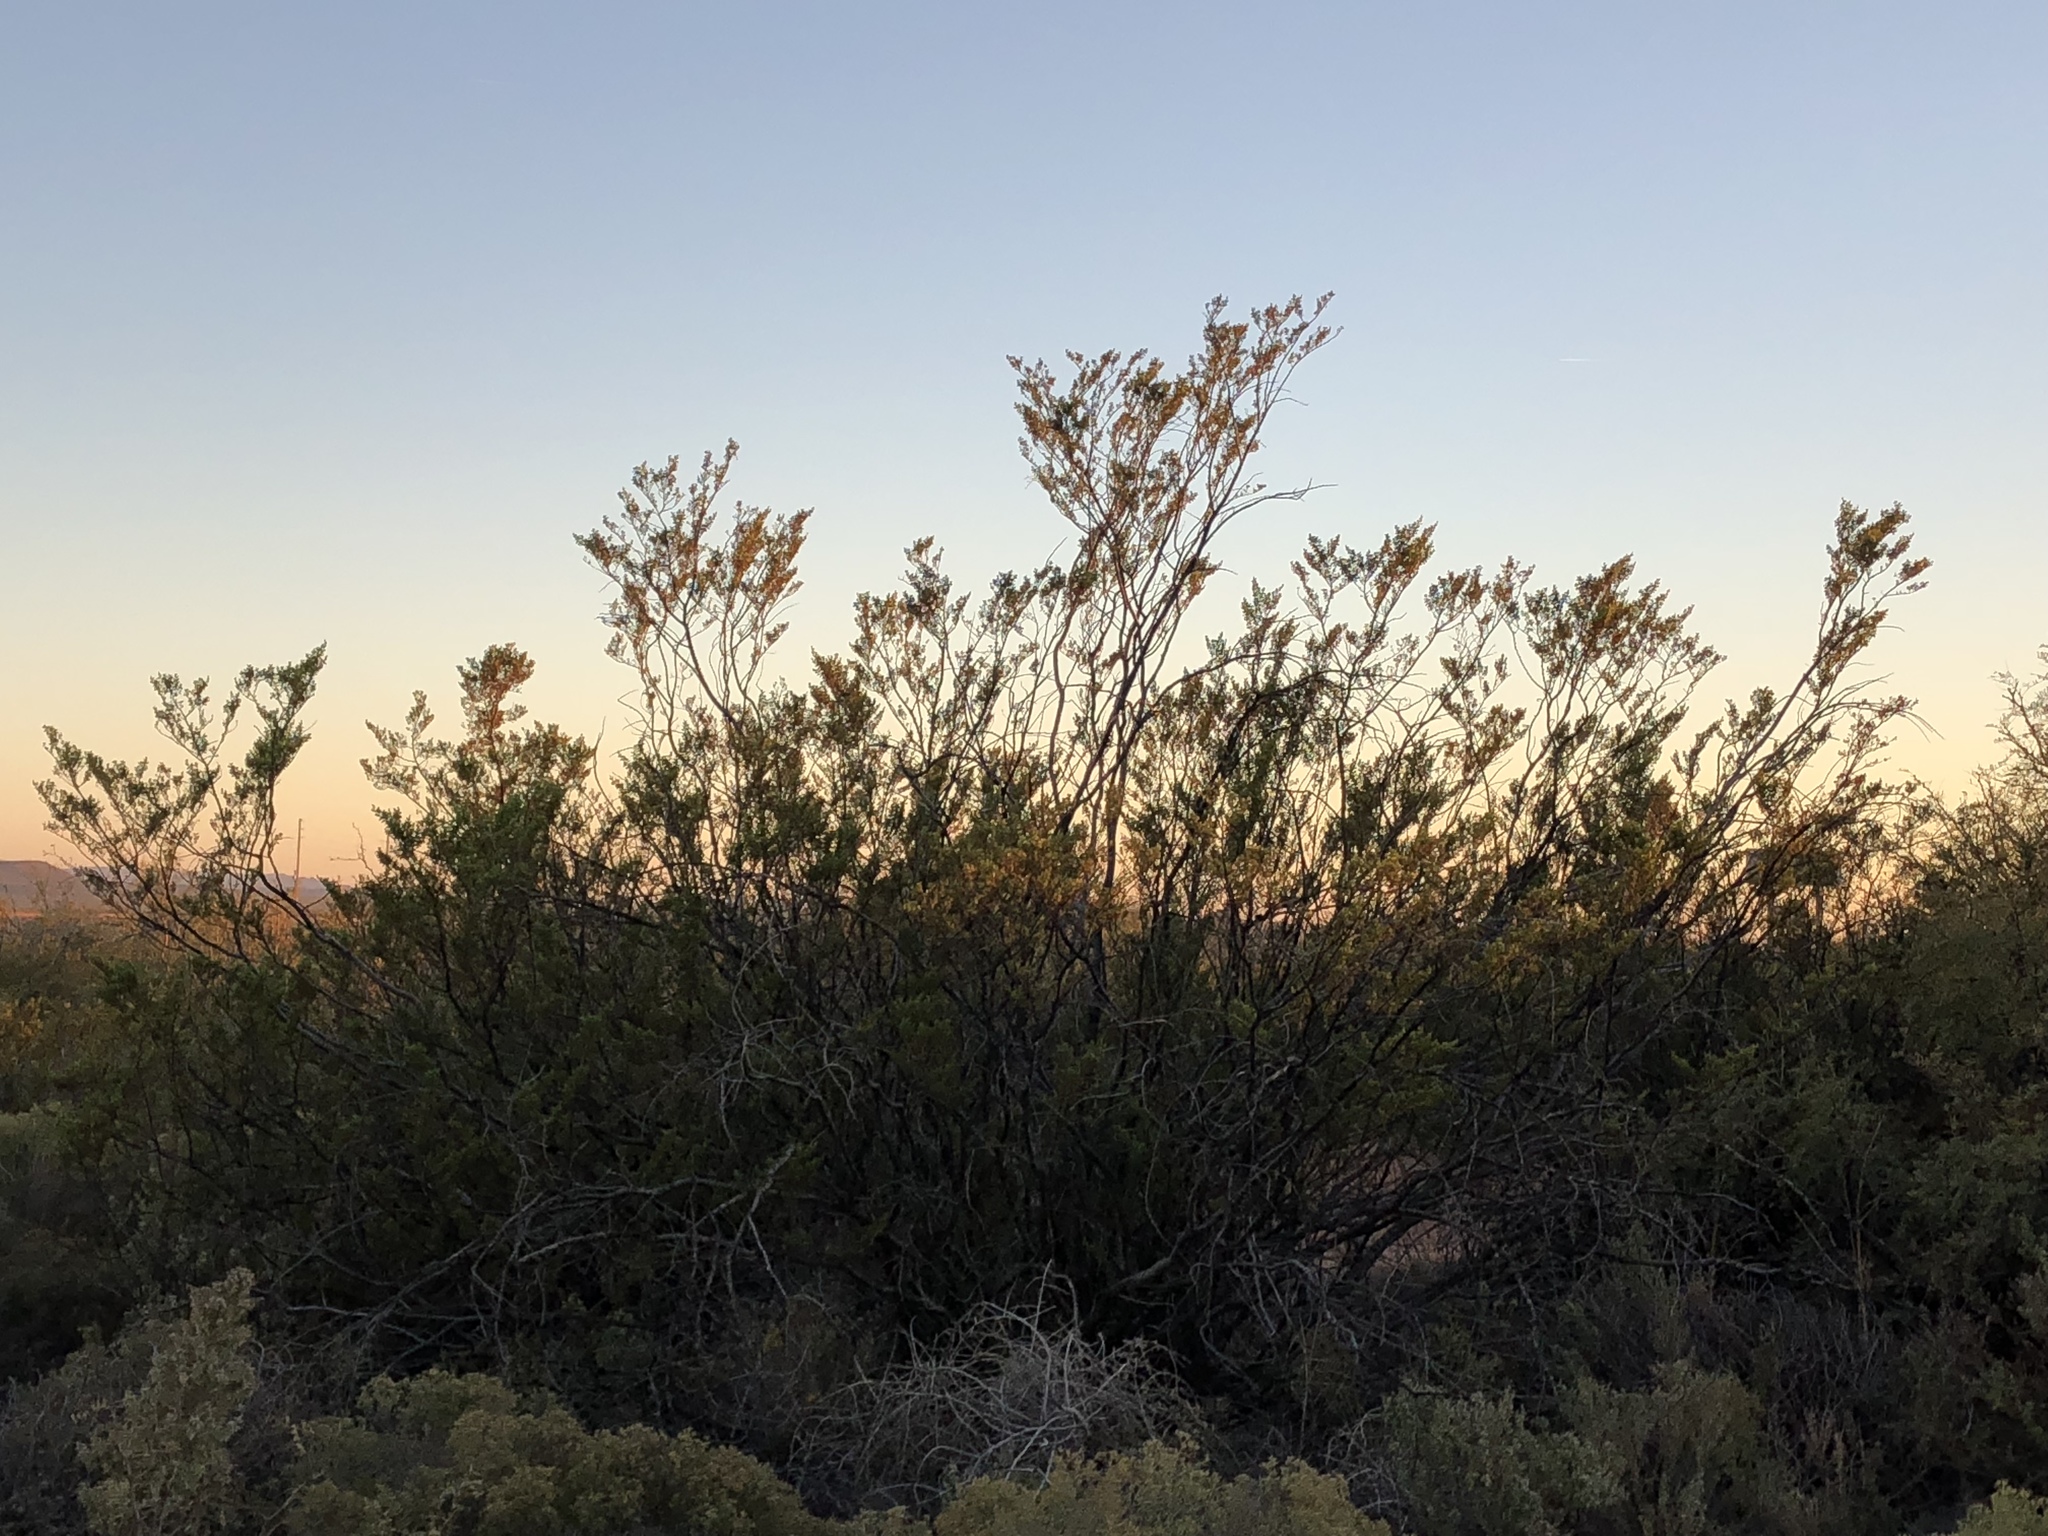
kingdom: Plantae
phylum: Tracheophyta
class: Magnoliopsida
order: Zygophyllales
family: Zygophyllaceae
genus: Larrea
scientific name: Larrea tridentata
